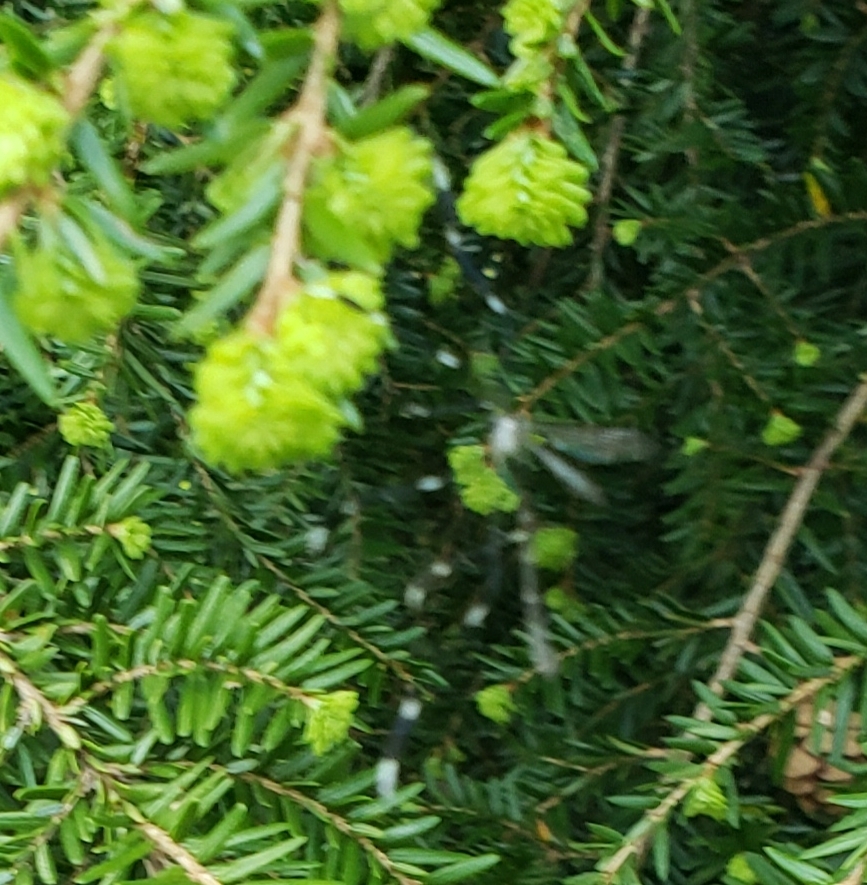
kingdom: Animalia
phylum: Arthropoda
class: Insecta
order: Diptera
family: Ptychopteridae
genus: Bittacomorpha
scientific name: Bittacomorpha clavipes
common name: Eastern phantom crane fly
